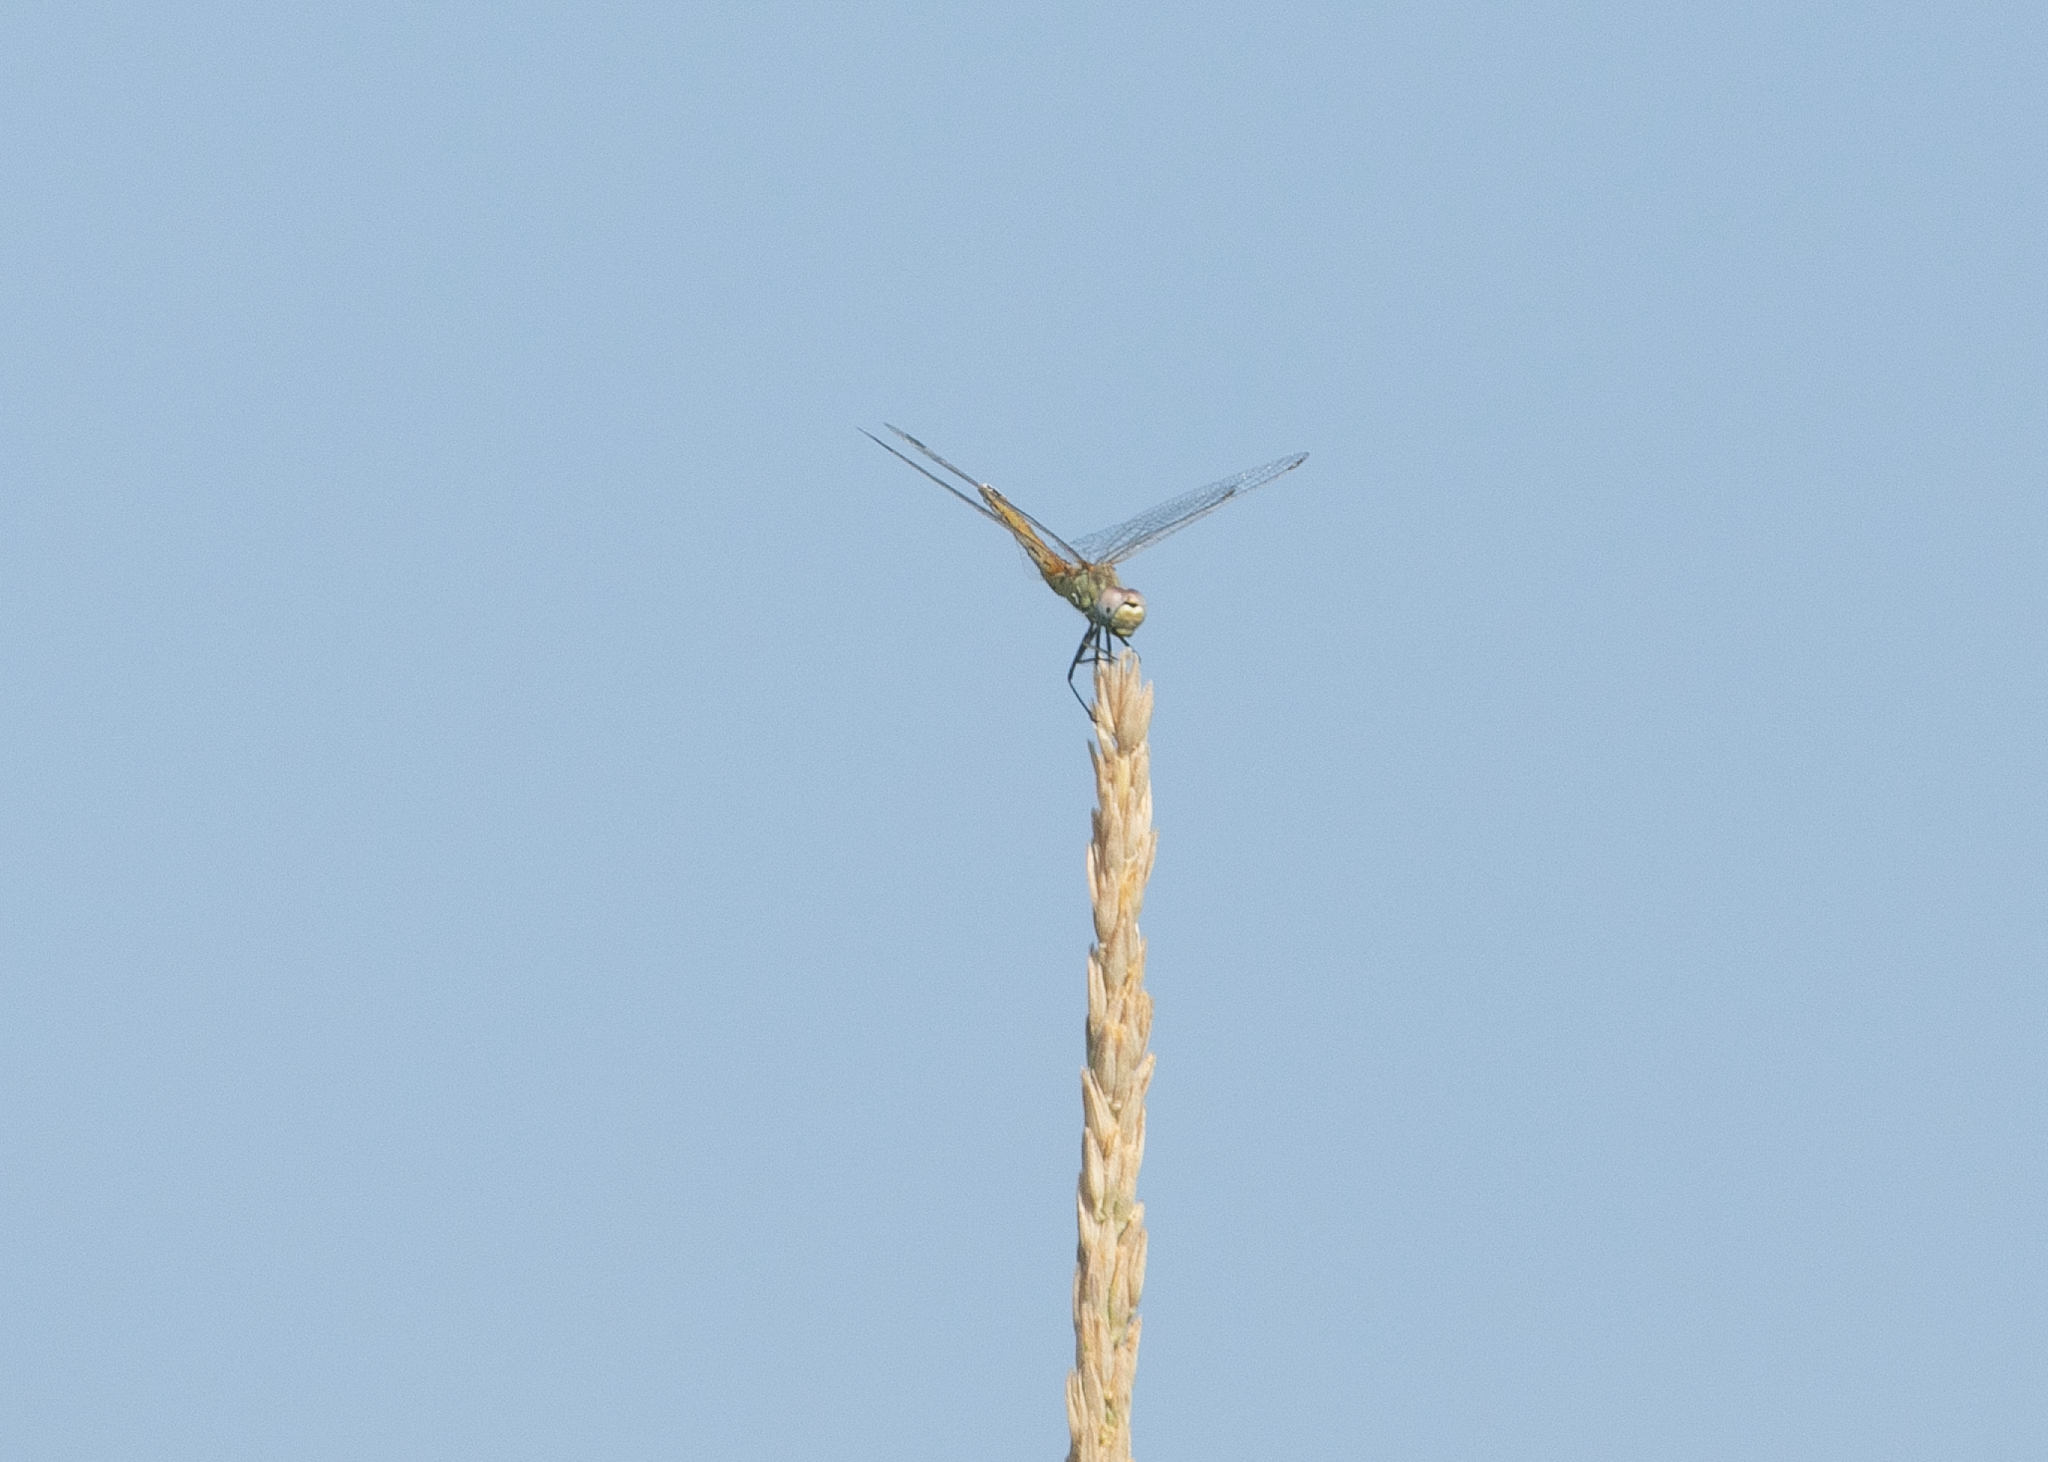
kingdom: Animalia
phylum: Arthropoda
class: Insecta
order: Odonata
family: Libellulidae
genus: Sympetrum
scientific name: Sympetrum fonscolombii
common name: Red-veined darter
